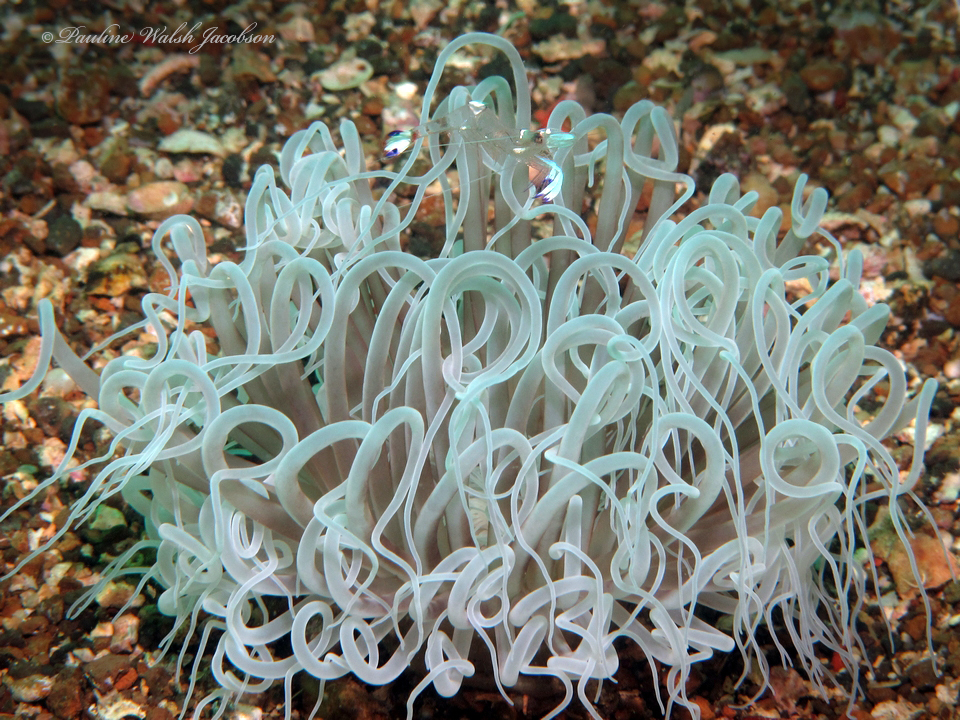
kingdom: Animalia
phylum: Arthropoda
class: Malacostraca
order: Decapoda
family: Palaemonidae
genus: Ancylomenes
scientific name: Ancylomenes magnificus
